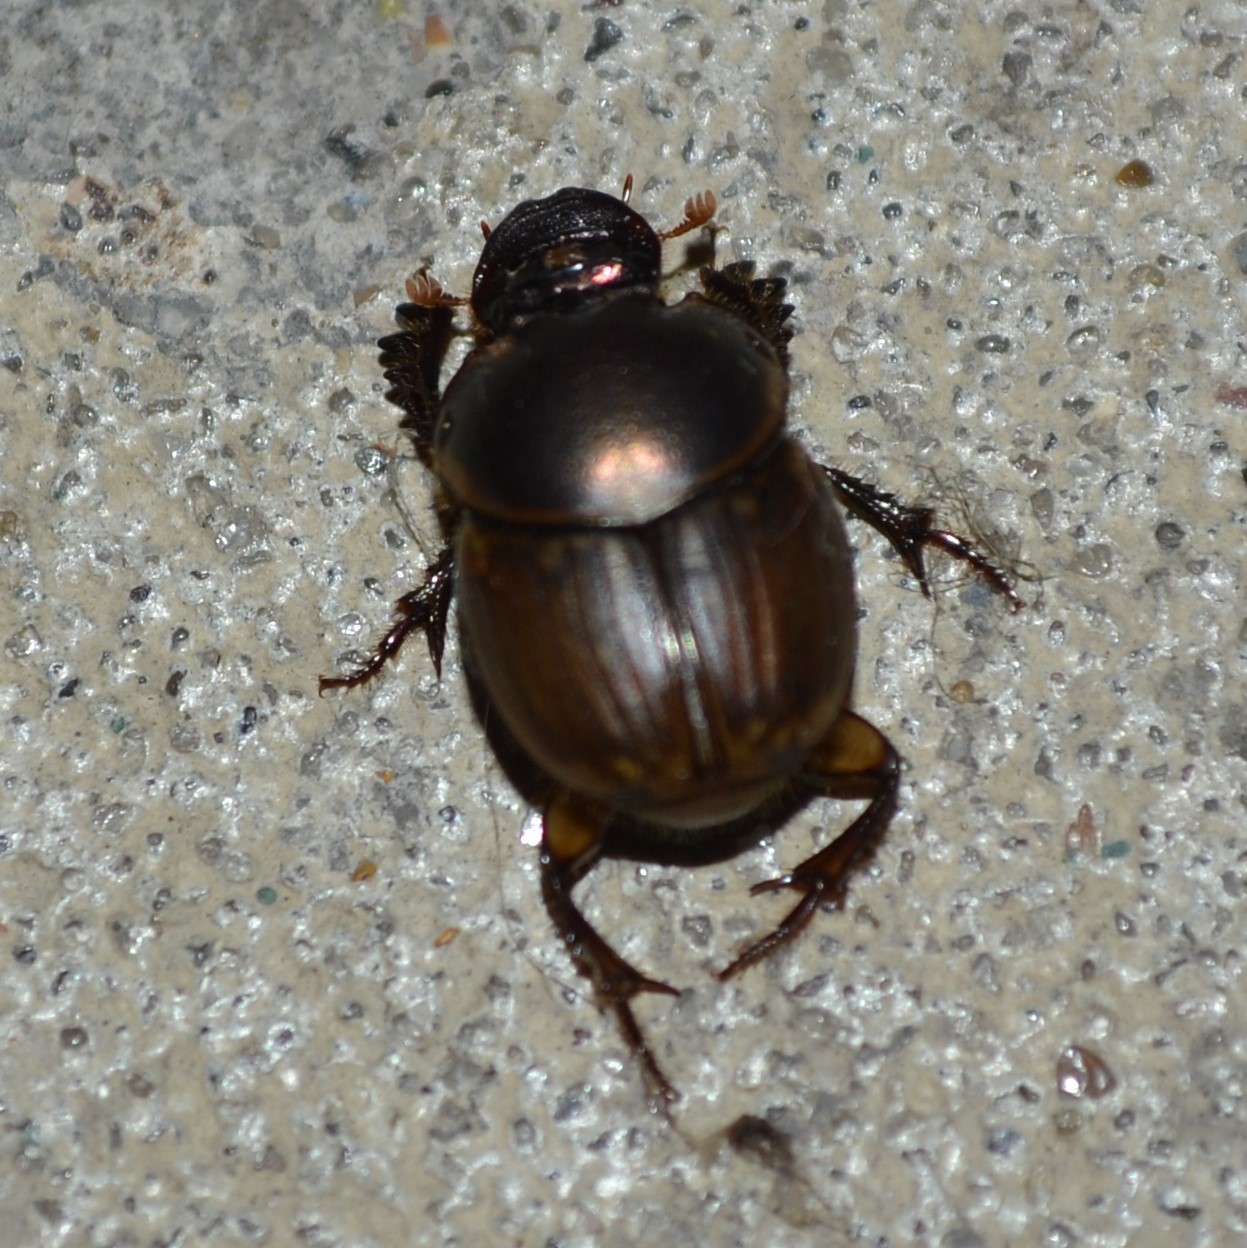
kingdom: Animalia
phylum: Arthropoda
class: Insecta
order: Coleoptera
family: Scarabaeidae
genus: Digitonthophagus
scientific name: Digitonthophagus gazella
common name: Brown dung beetle
